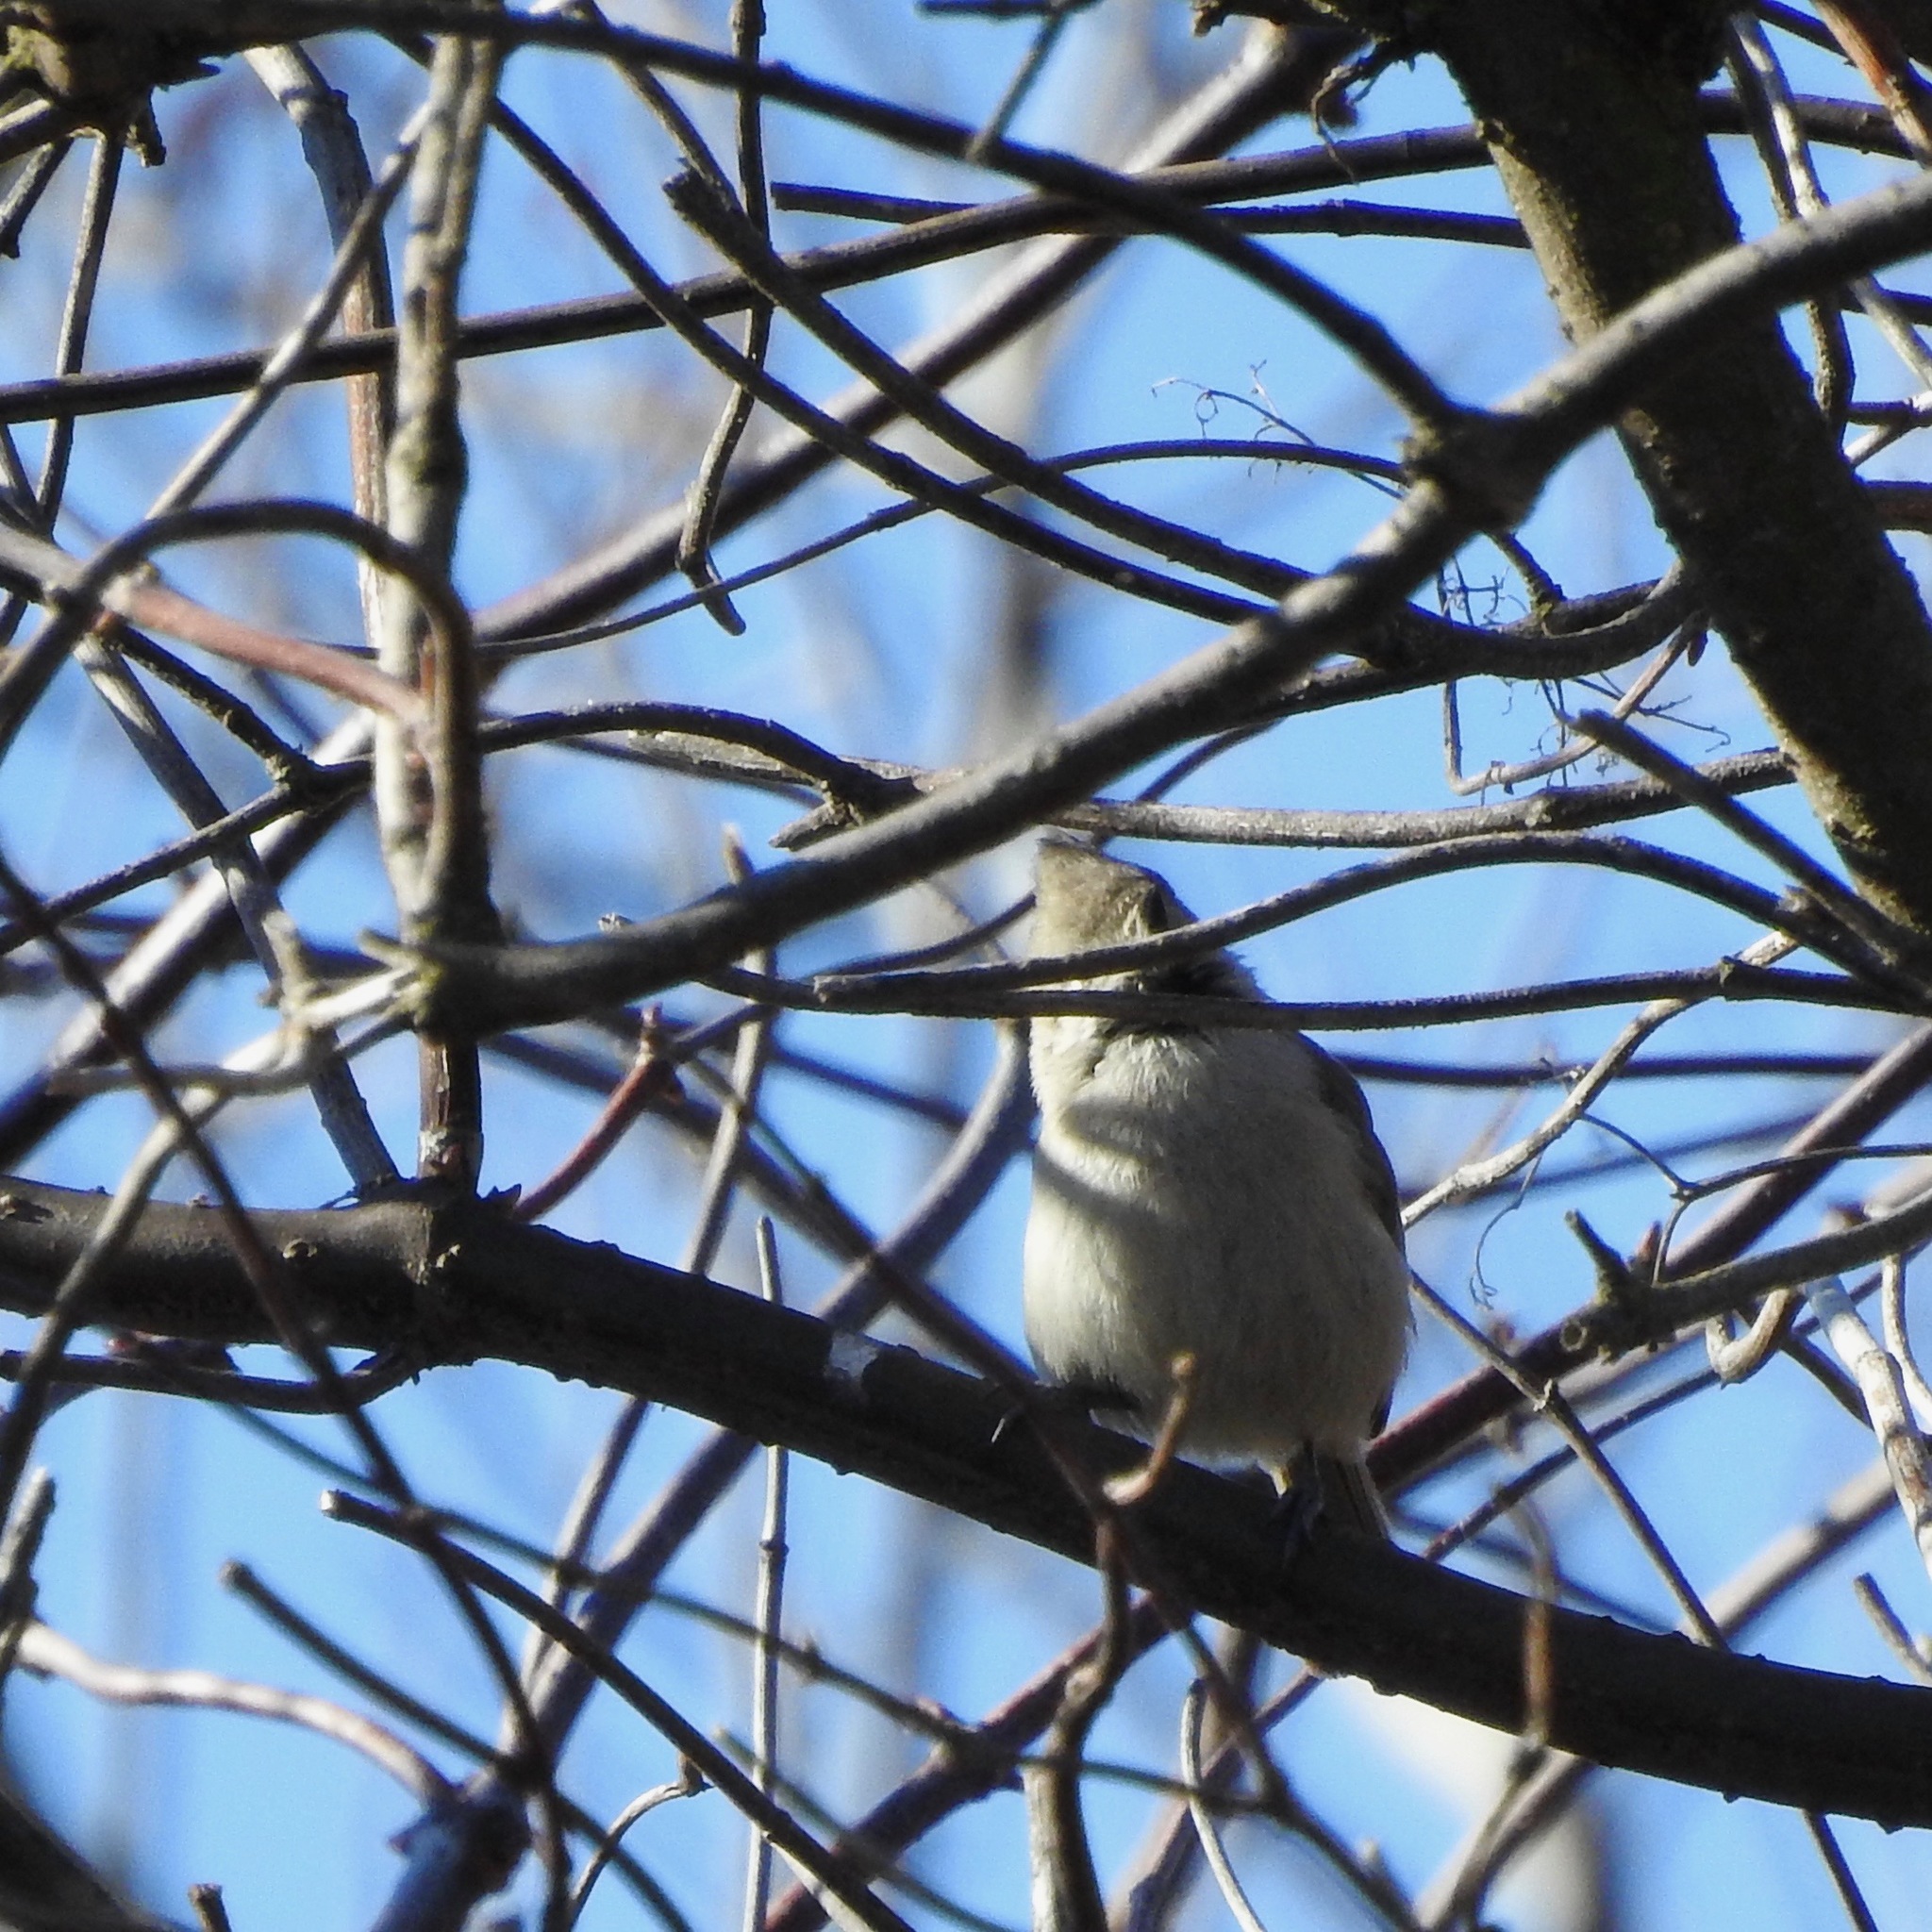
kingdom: Animalia
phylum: Chordata
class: Aves
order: Passeriformes
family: Paridae
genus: Baeolophus
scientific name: Baeolophus inornatus
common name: Oak titmouse
